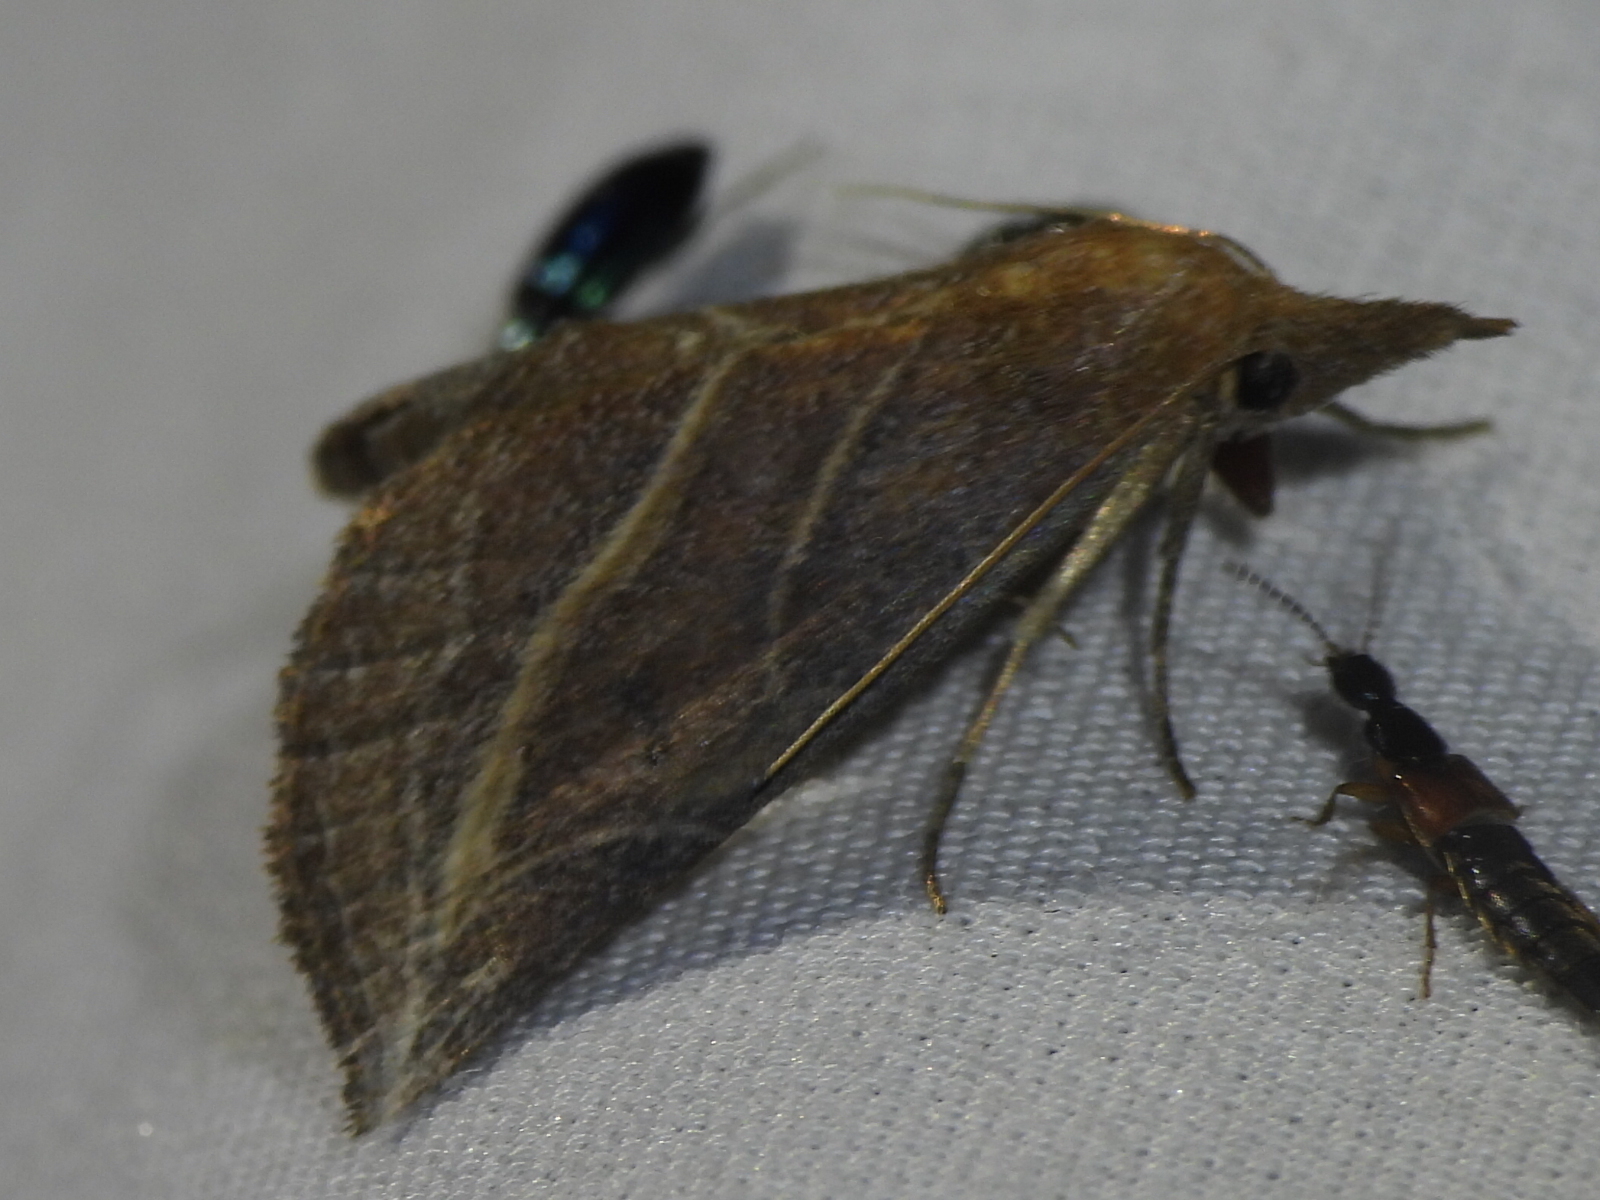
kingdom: Animalia
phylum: Arthropoda
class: Insecta
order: Lepidoptera
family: Erebidae
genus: Phyprosopus
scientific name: Phyprosopus callitrichoides
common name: Curved-lined owlet
